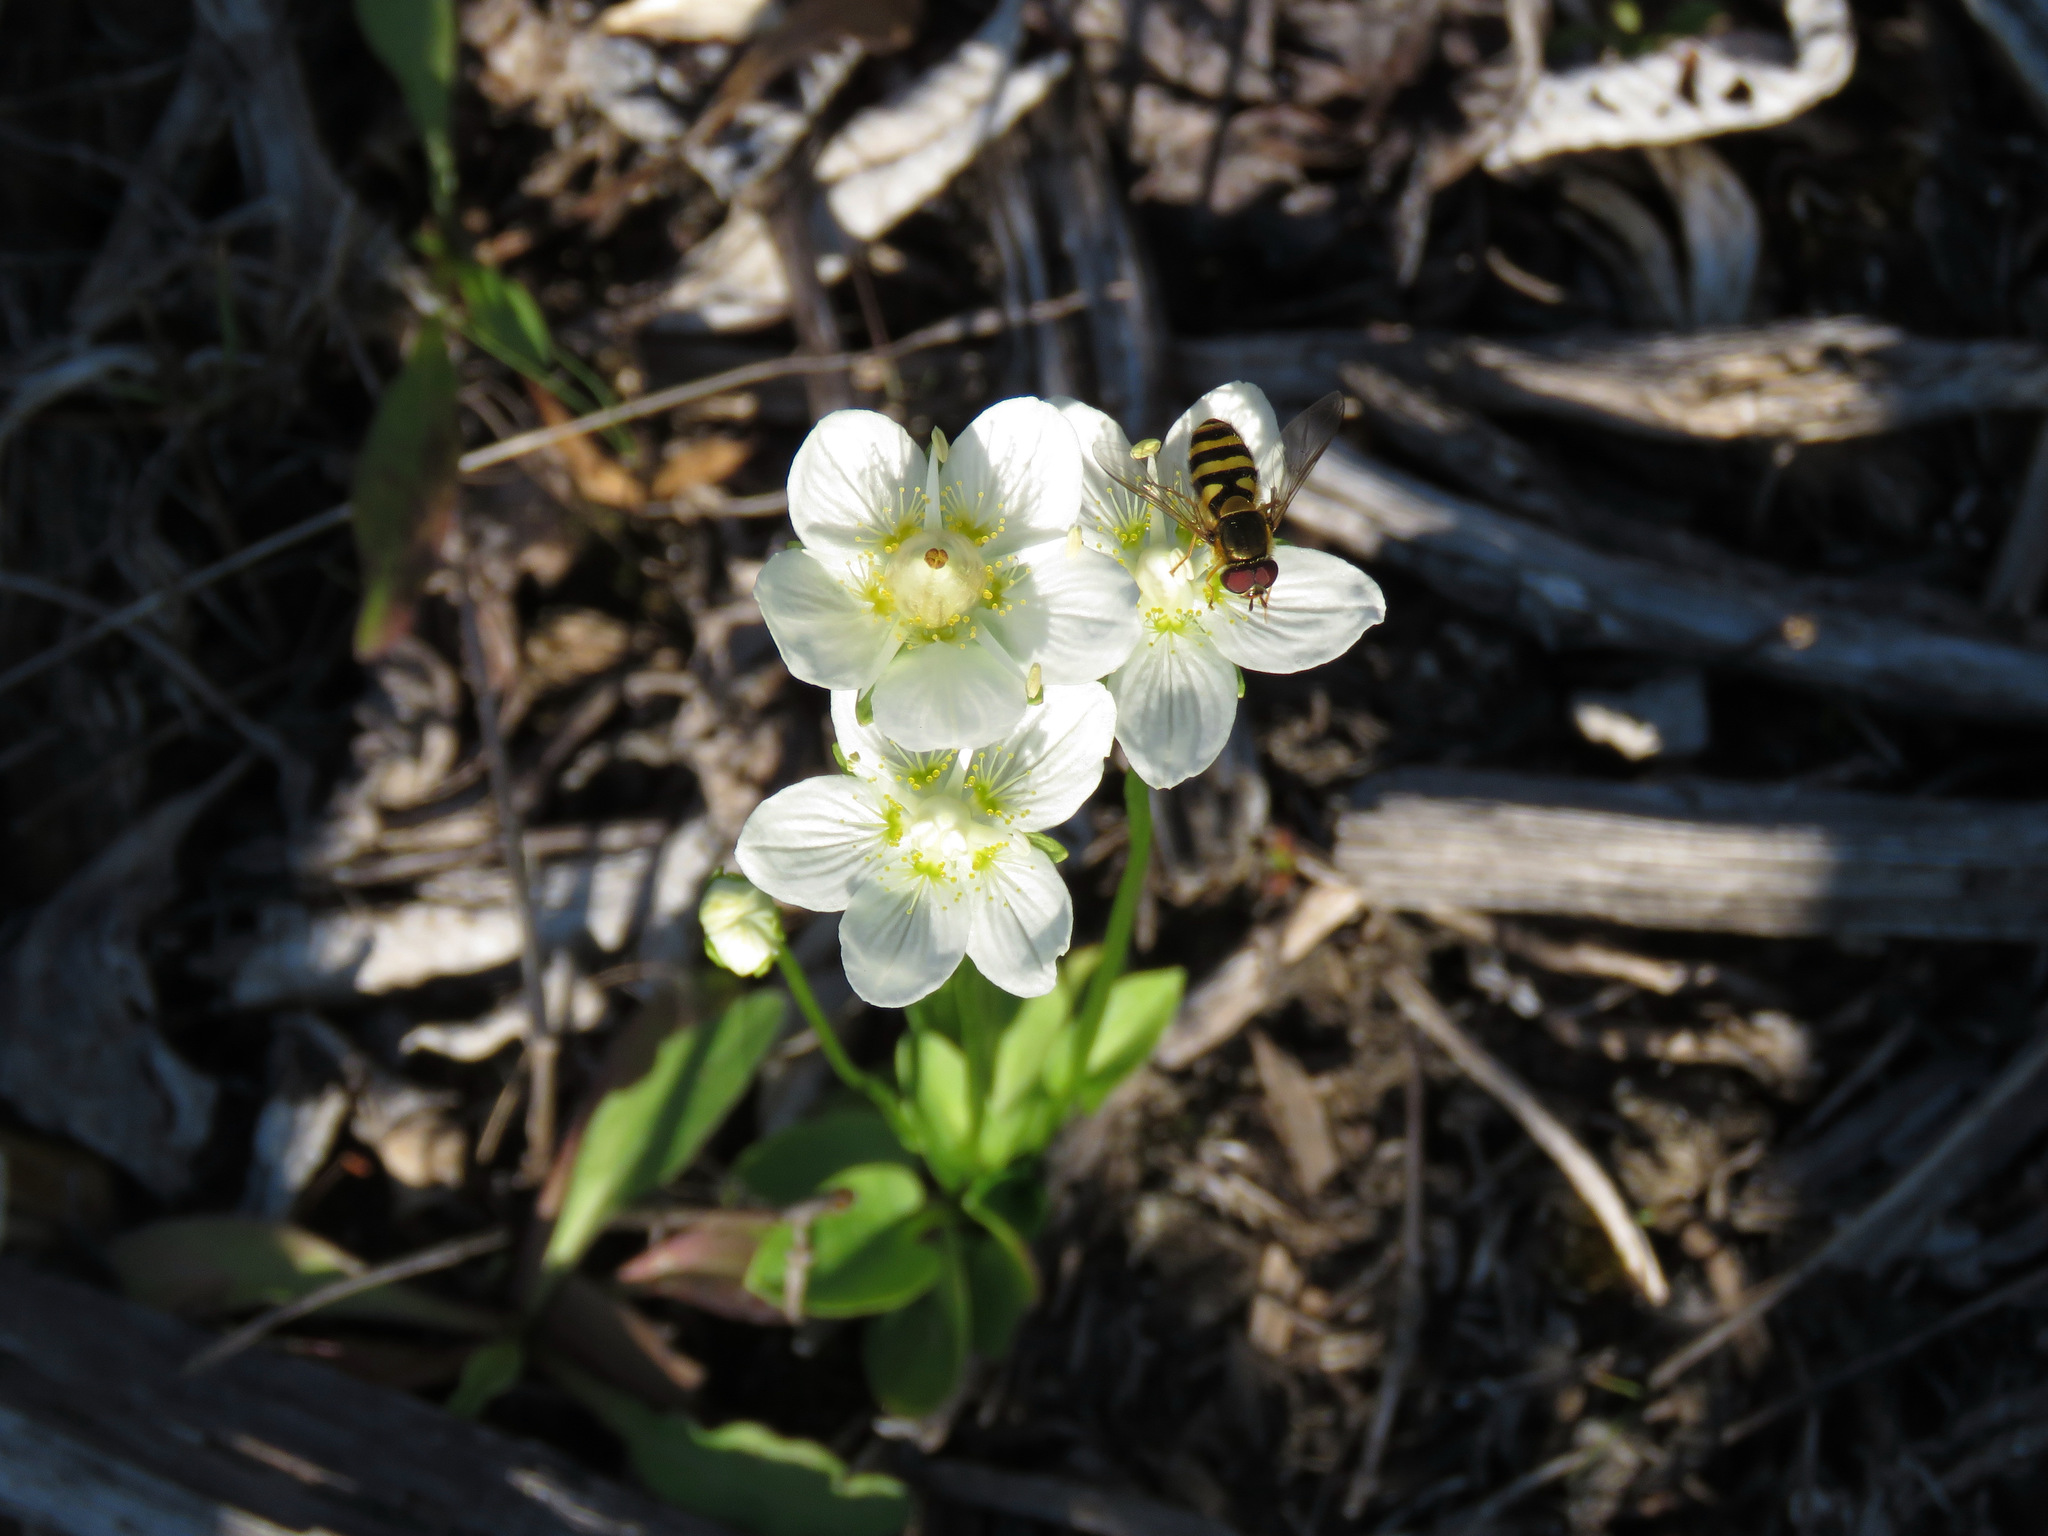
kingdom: Plantae
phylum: Tracheophyta
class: Magnoliopsida
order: Celastrales
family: Parnassiaceae
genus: Parnassia
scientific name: Parnassia palustris
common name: Grass-of-parnassus
